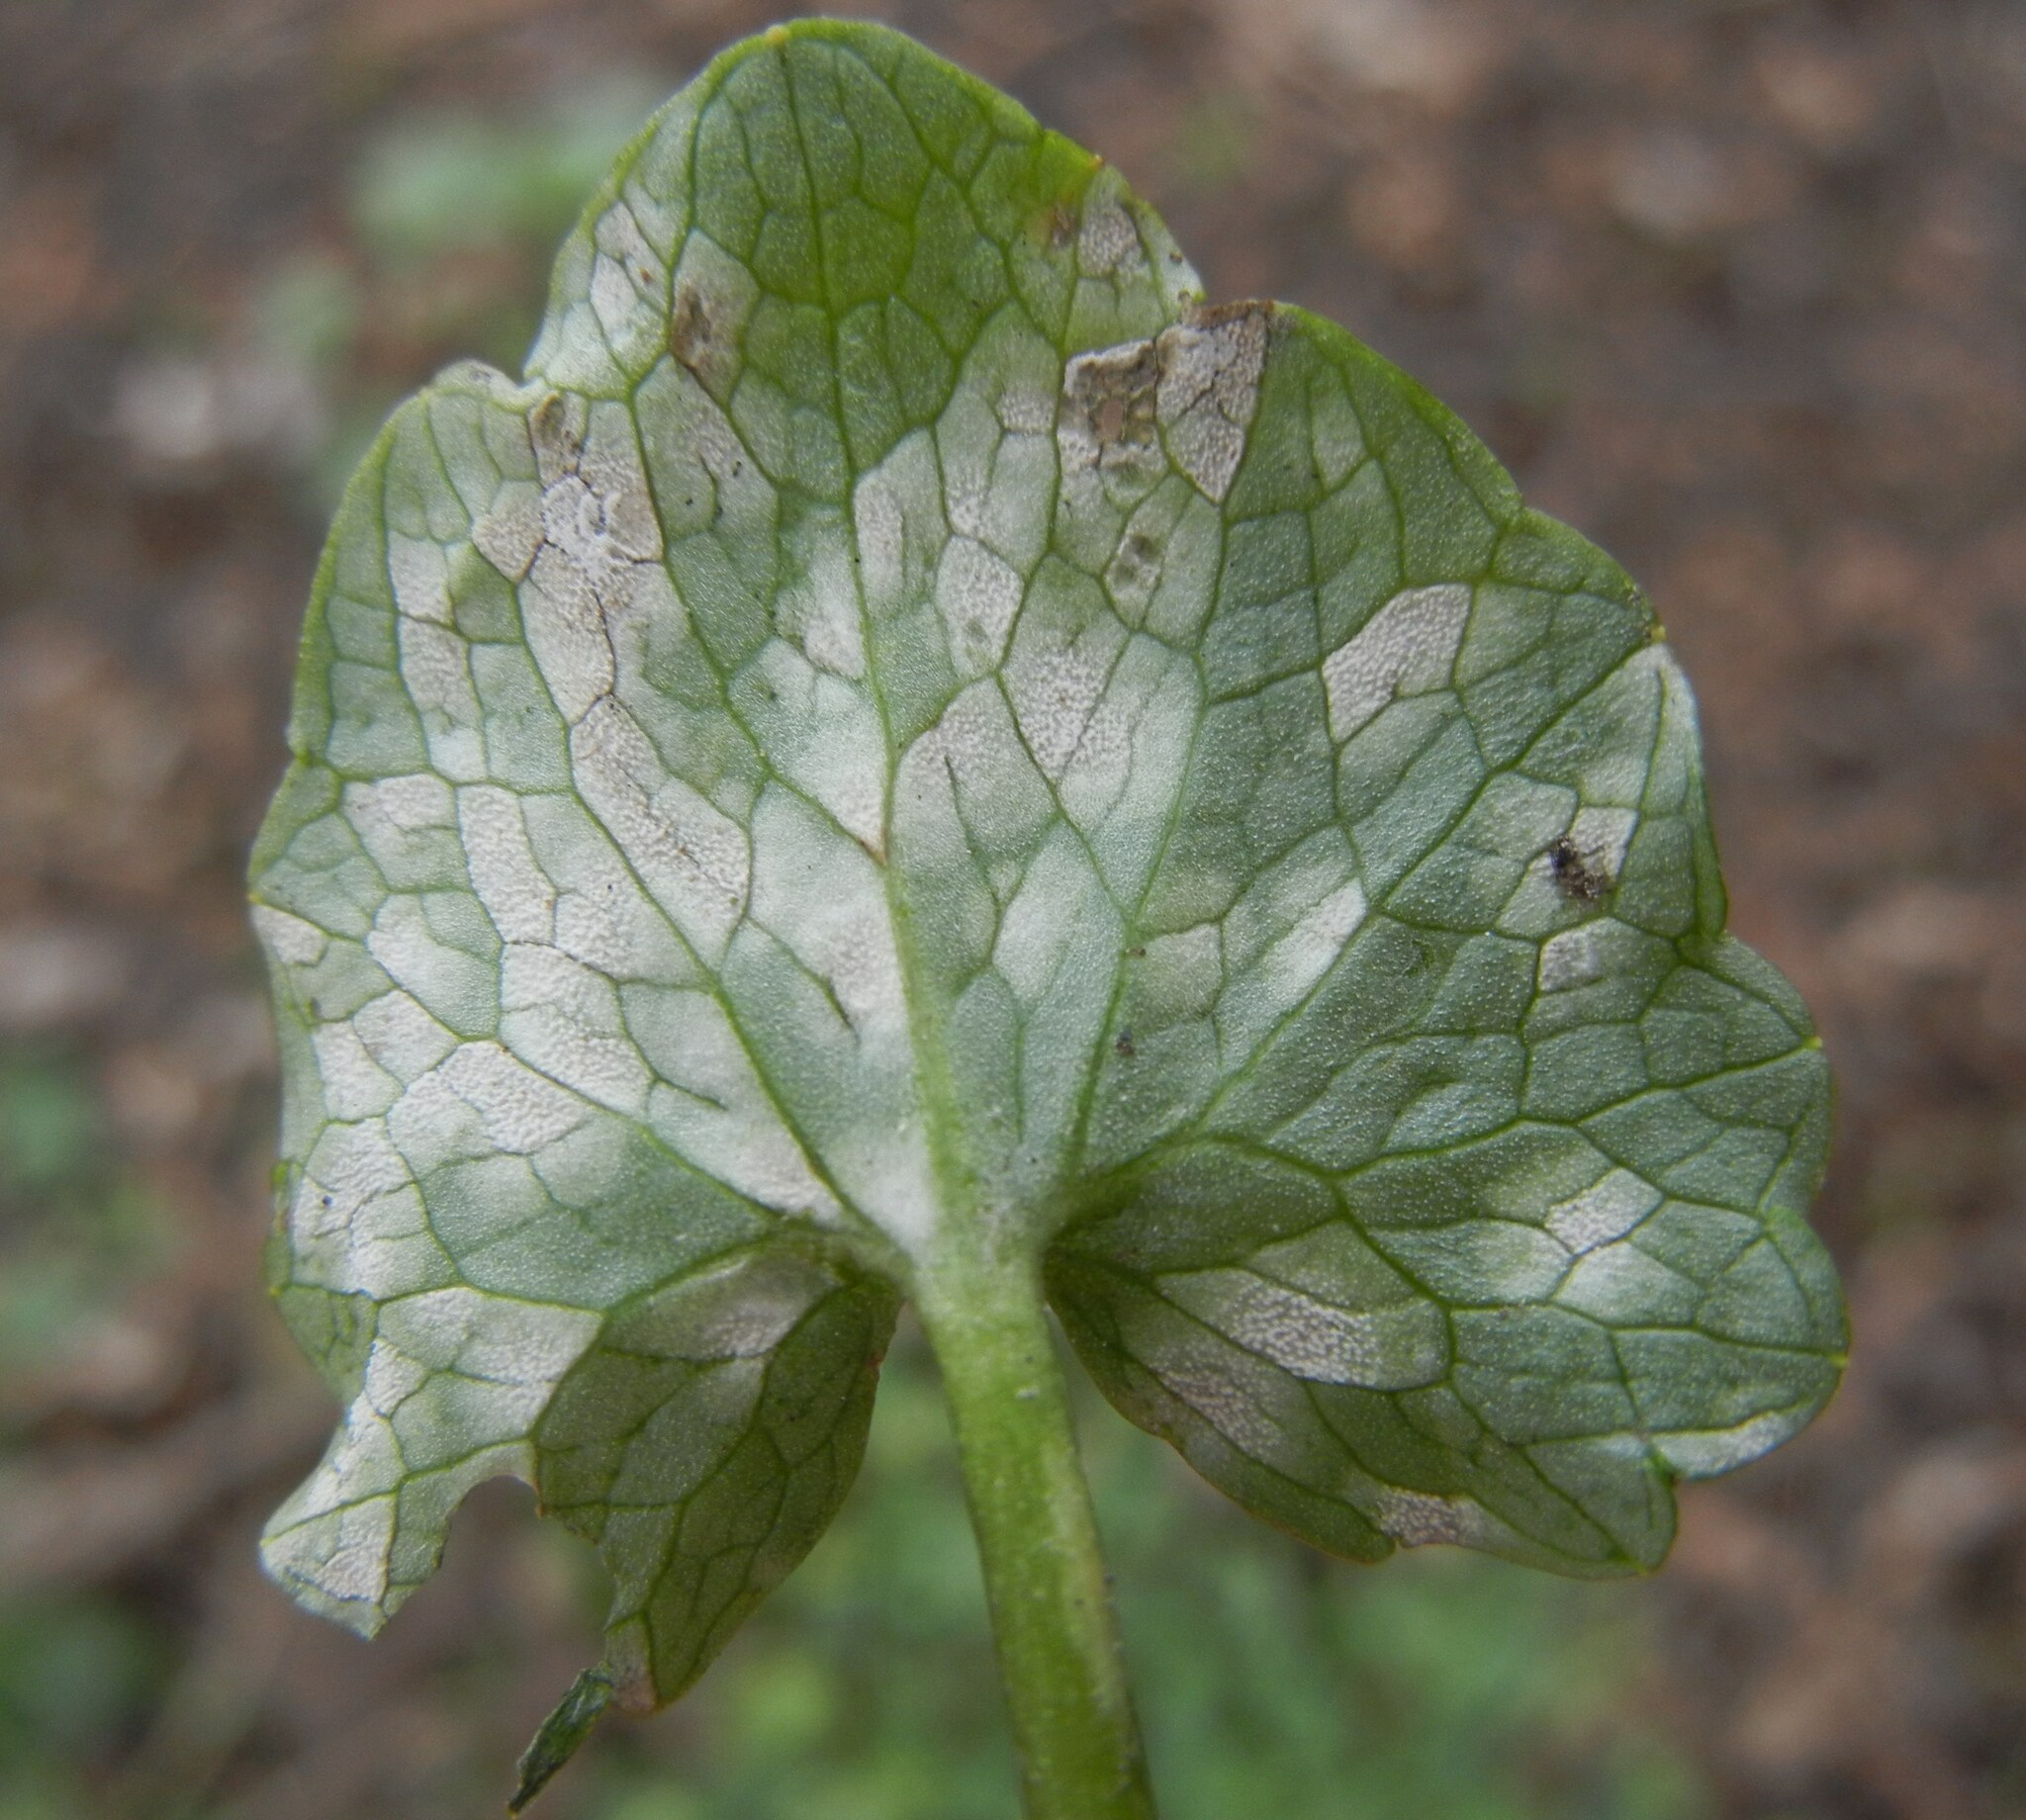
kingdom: Fungi
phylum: Basidiomycota
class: Exobasidiomycetes
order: Entylomatales
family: Entylomataceae
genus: Entyloma
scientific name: Entyloma ficariae
